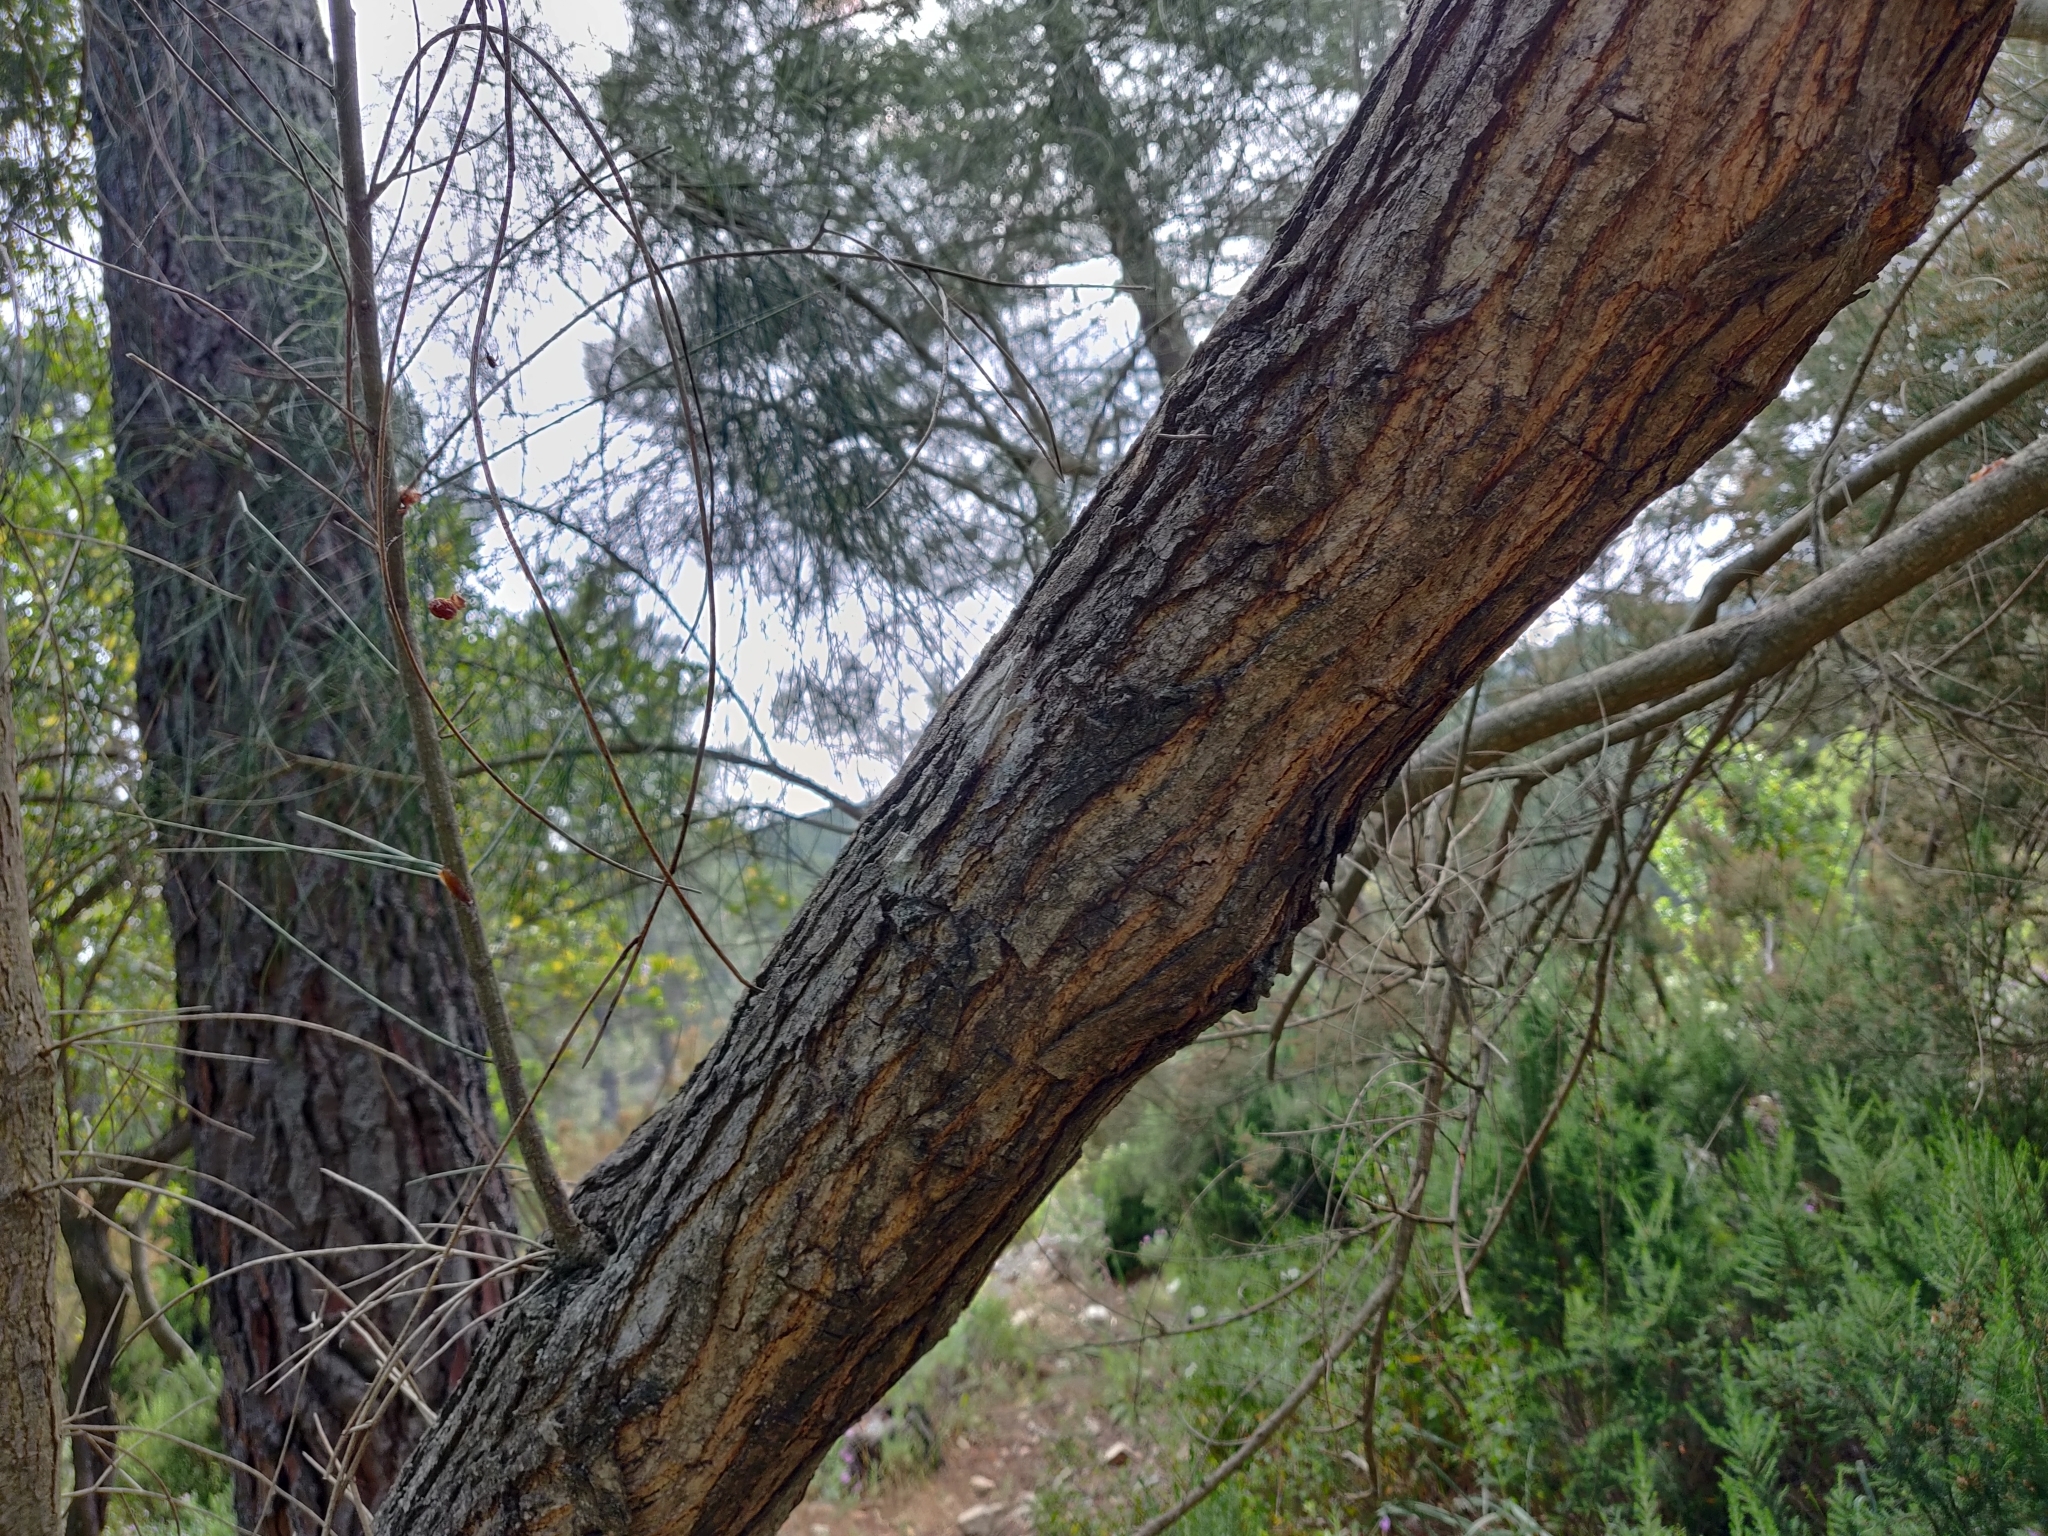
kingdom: Plantae
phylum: Tracheophyta
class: Magnoliopsida
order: Fabales
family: Fabaceae
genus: Spartium
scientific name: Spartium junceum
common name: Spanish broom
